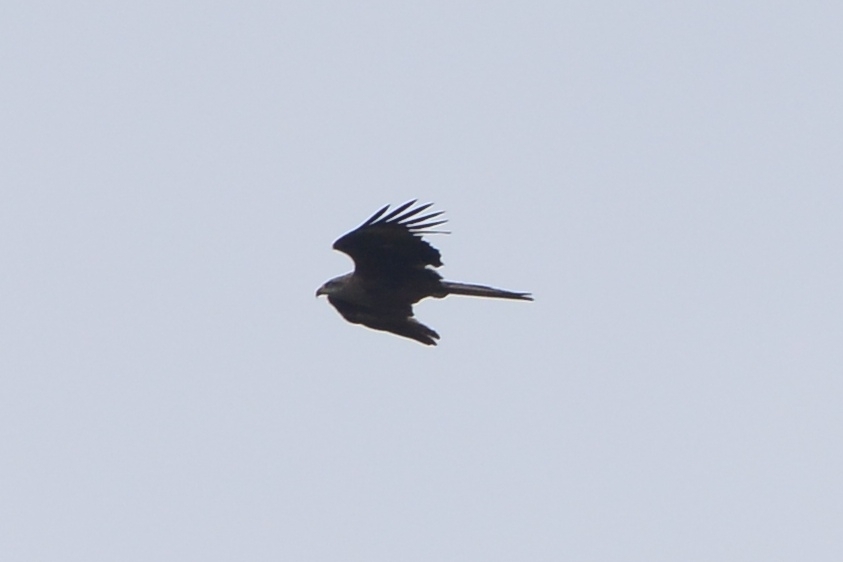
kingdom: Animalia
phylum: Chordata
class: Aves
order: Accipitriformes
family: Accipitridae
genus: Milvus
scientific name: Milvus migrans
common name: Black kite
